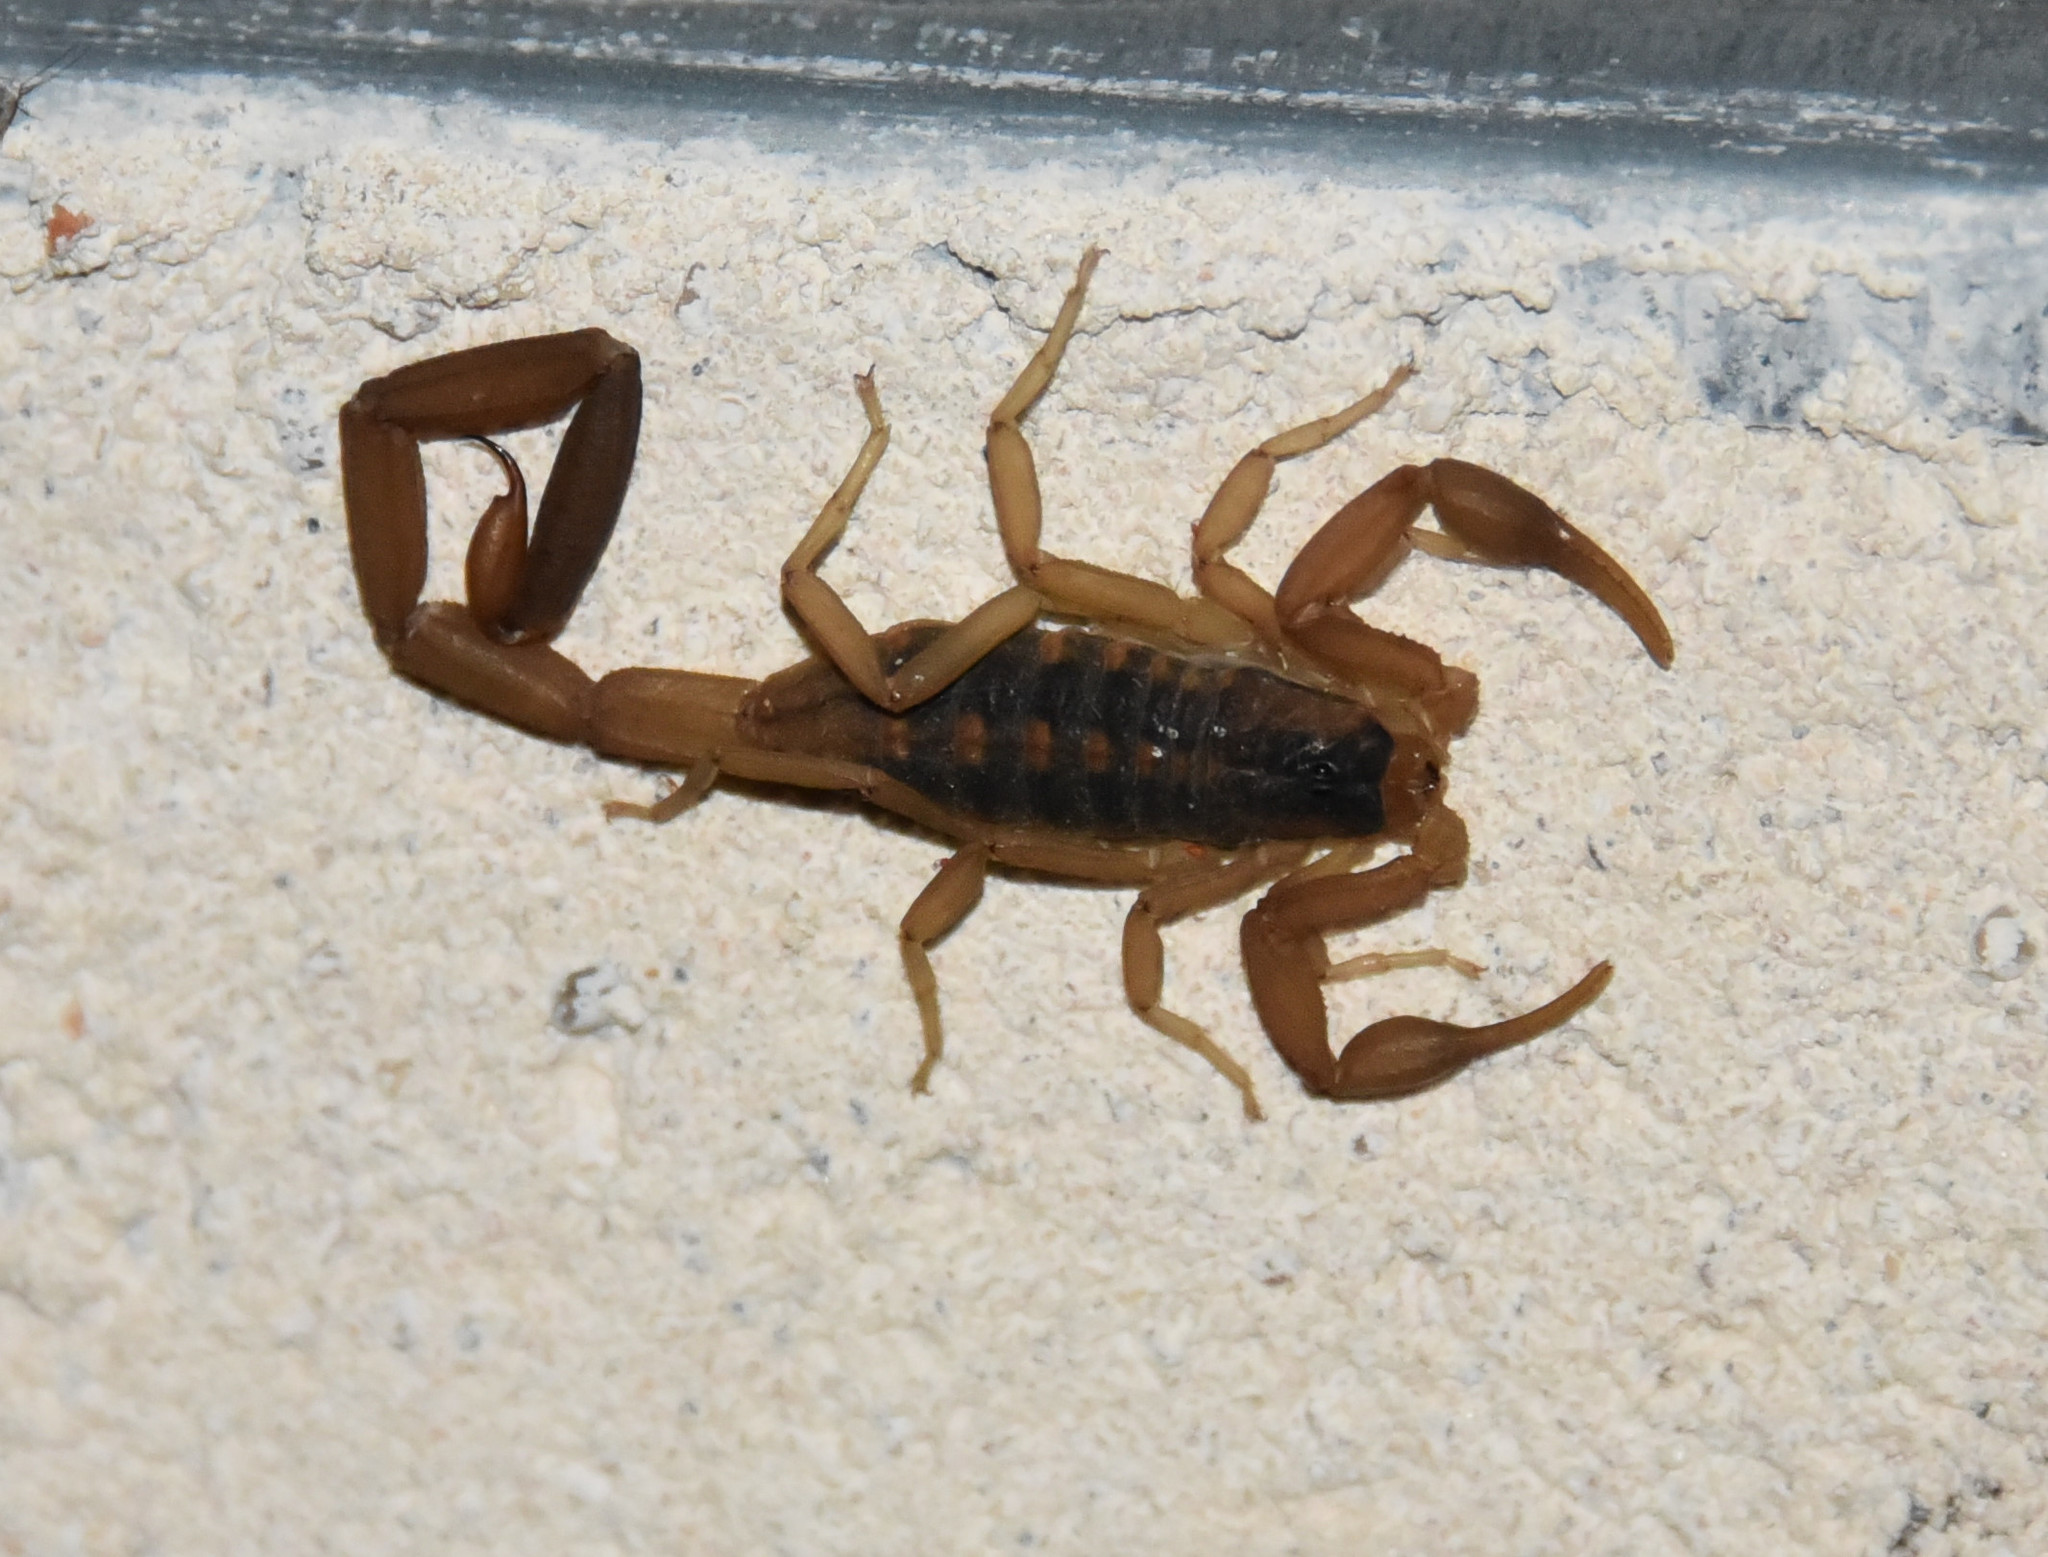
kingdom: Animalia
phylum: Arthropoda
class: Arachnida
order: Scorpiones
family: Buthidae
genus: Centruroides
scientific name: Centruroides vittatus
